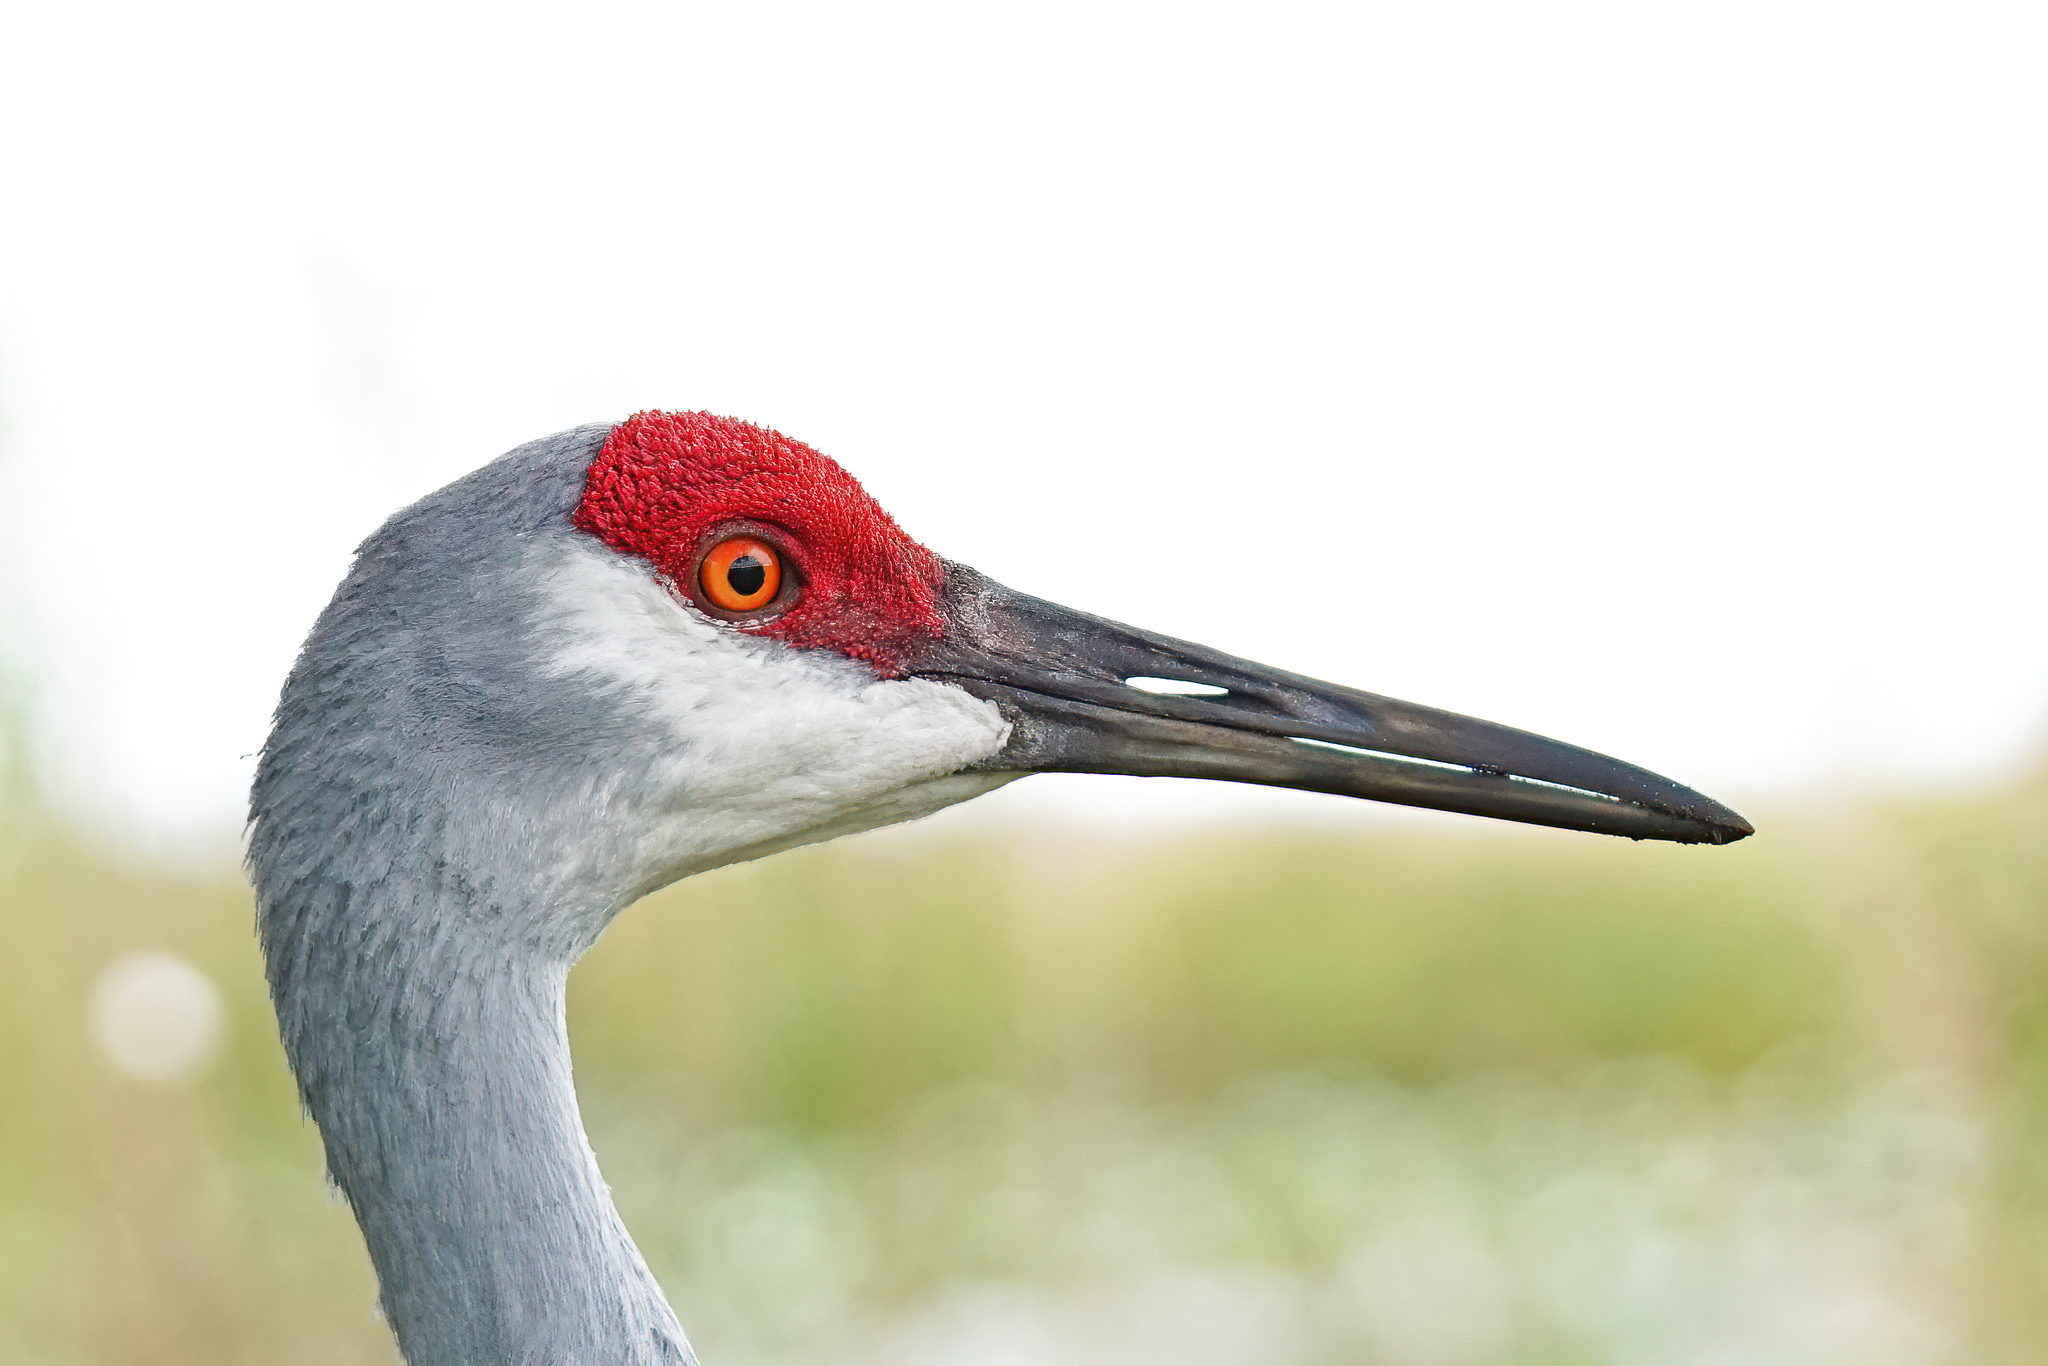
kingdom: Animalia
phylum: Chordata
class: Aves
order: Gruiformes
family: Gruidae
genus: Grus
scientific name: Grus canadensis
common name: Sandhill crane
